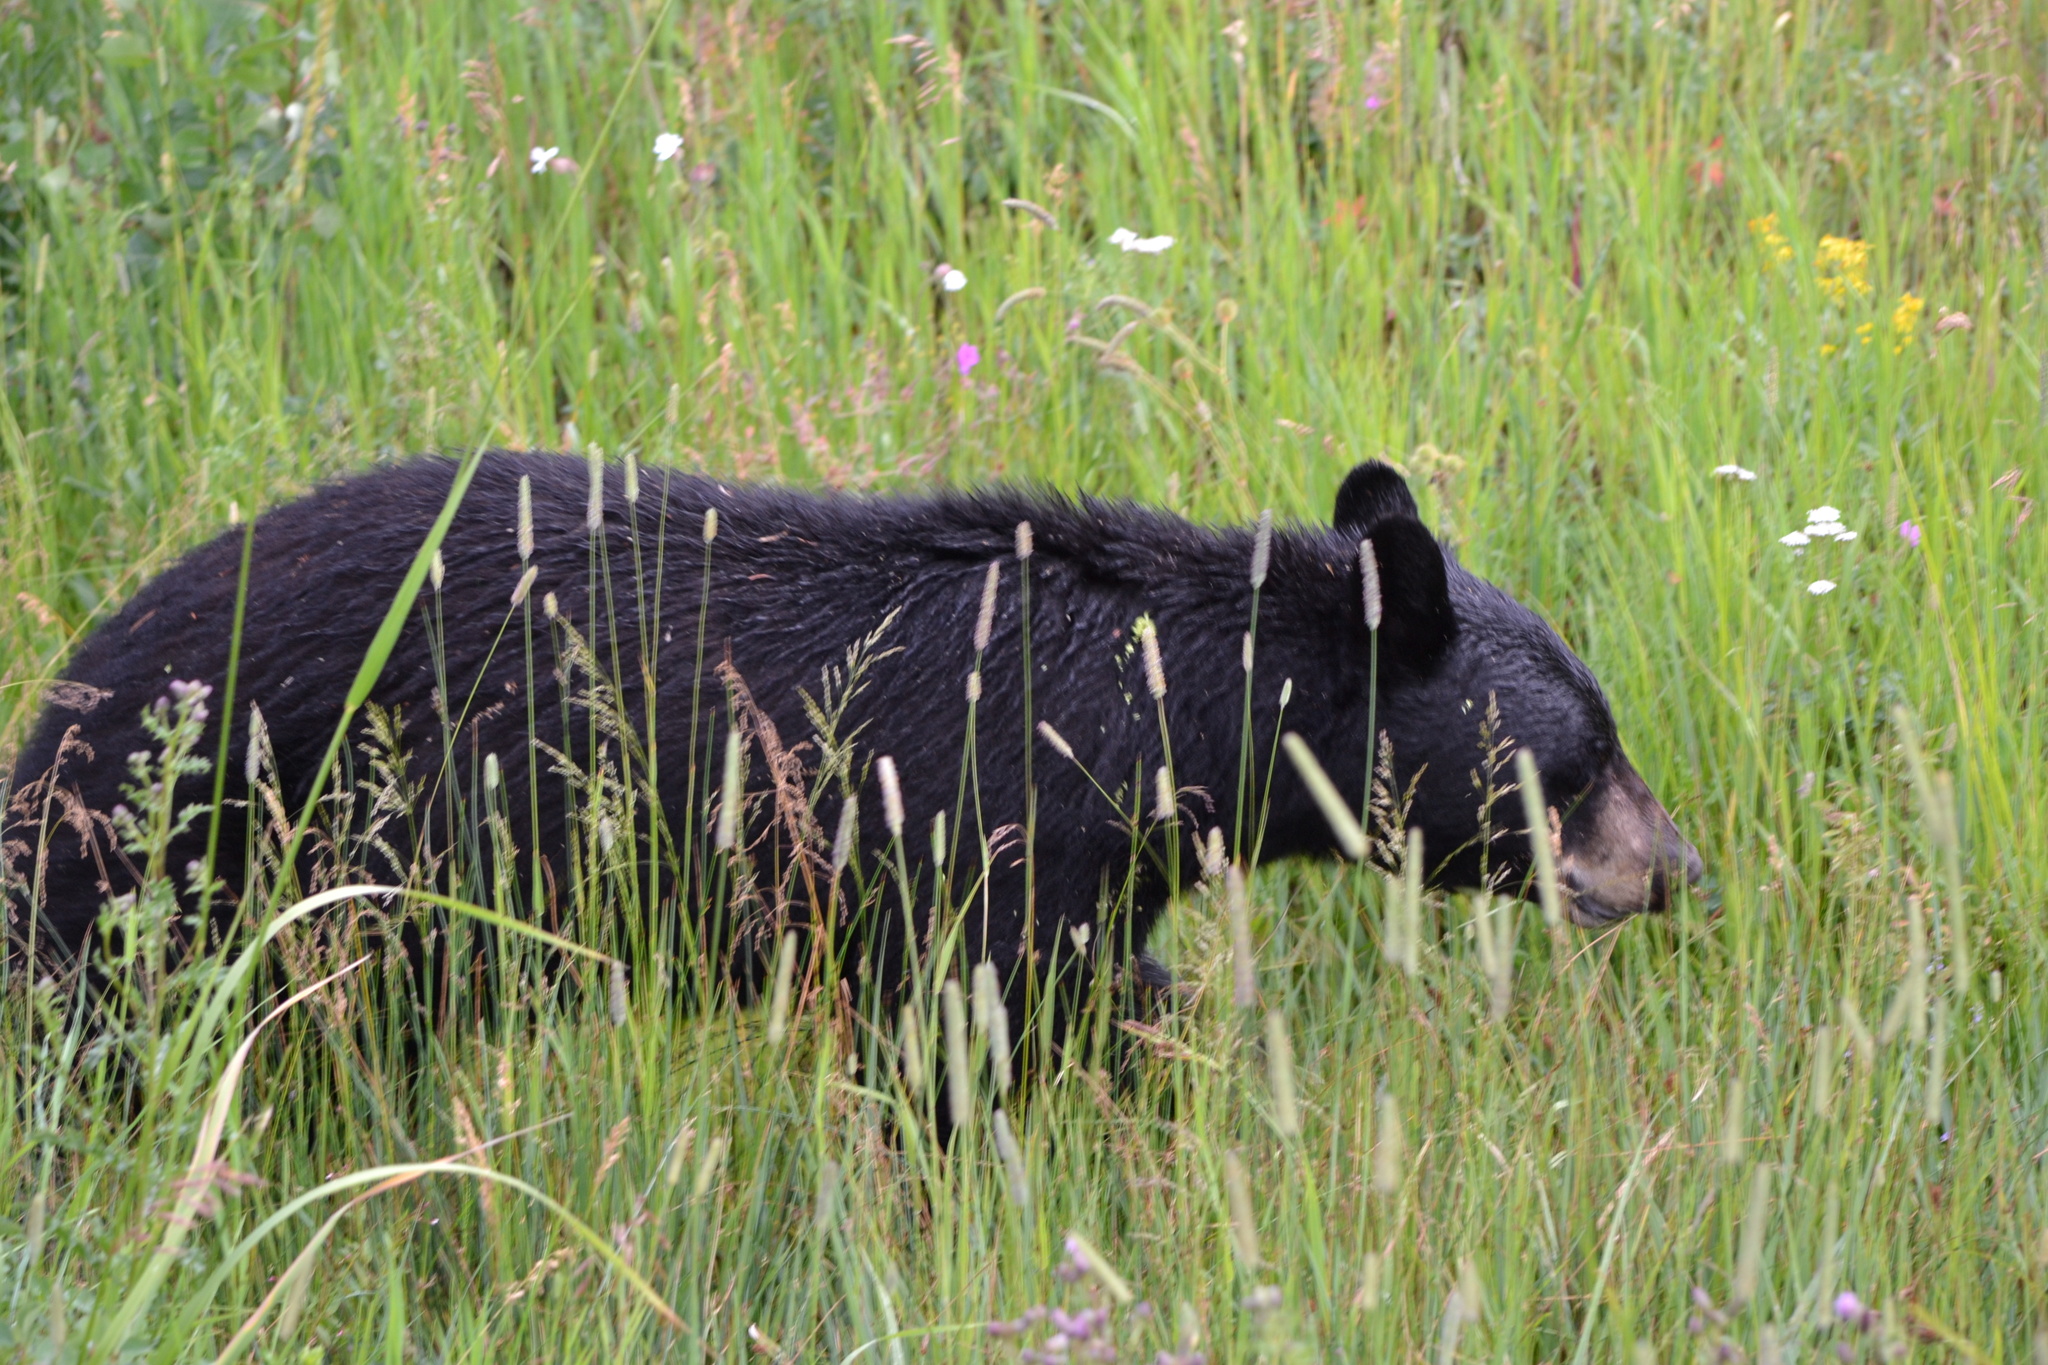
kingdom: Animalia
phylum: Chordata
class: Mammalia
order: Carnivora
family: Ursidae
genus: Ursus
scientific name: Ursus americanus
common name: American black bear
